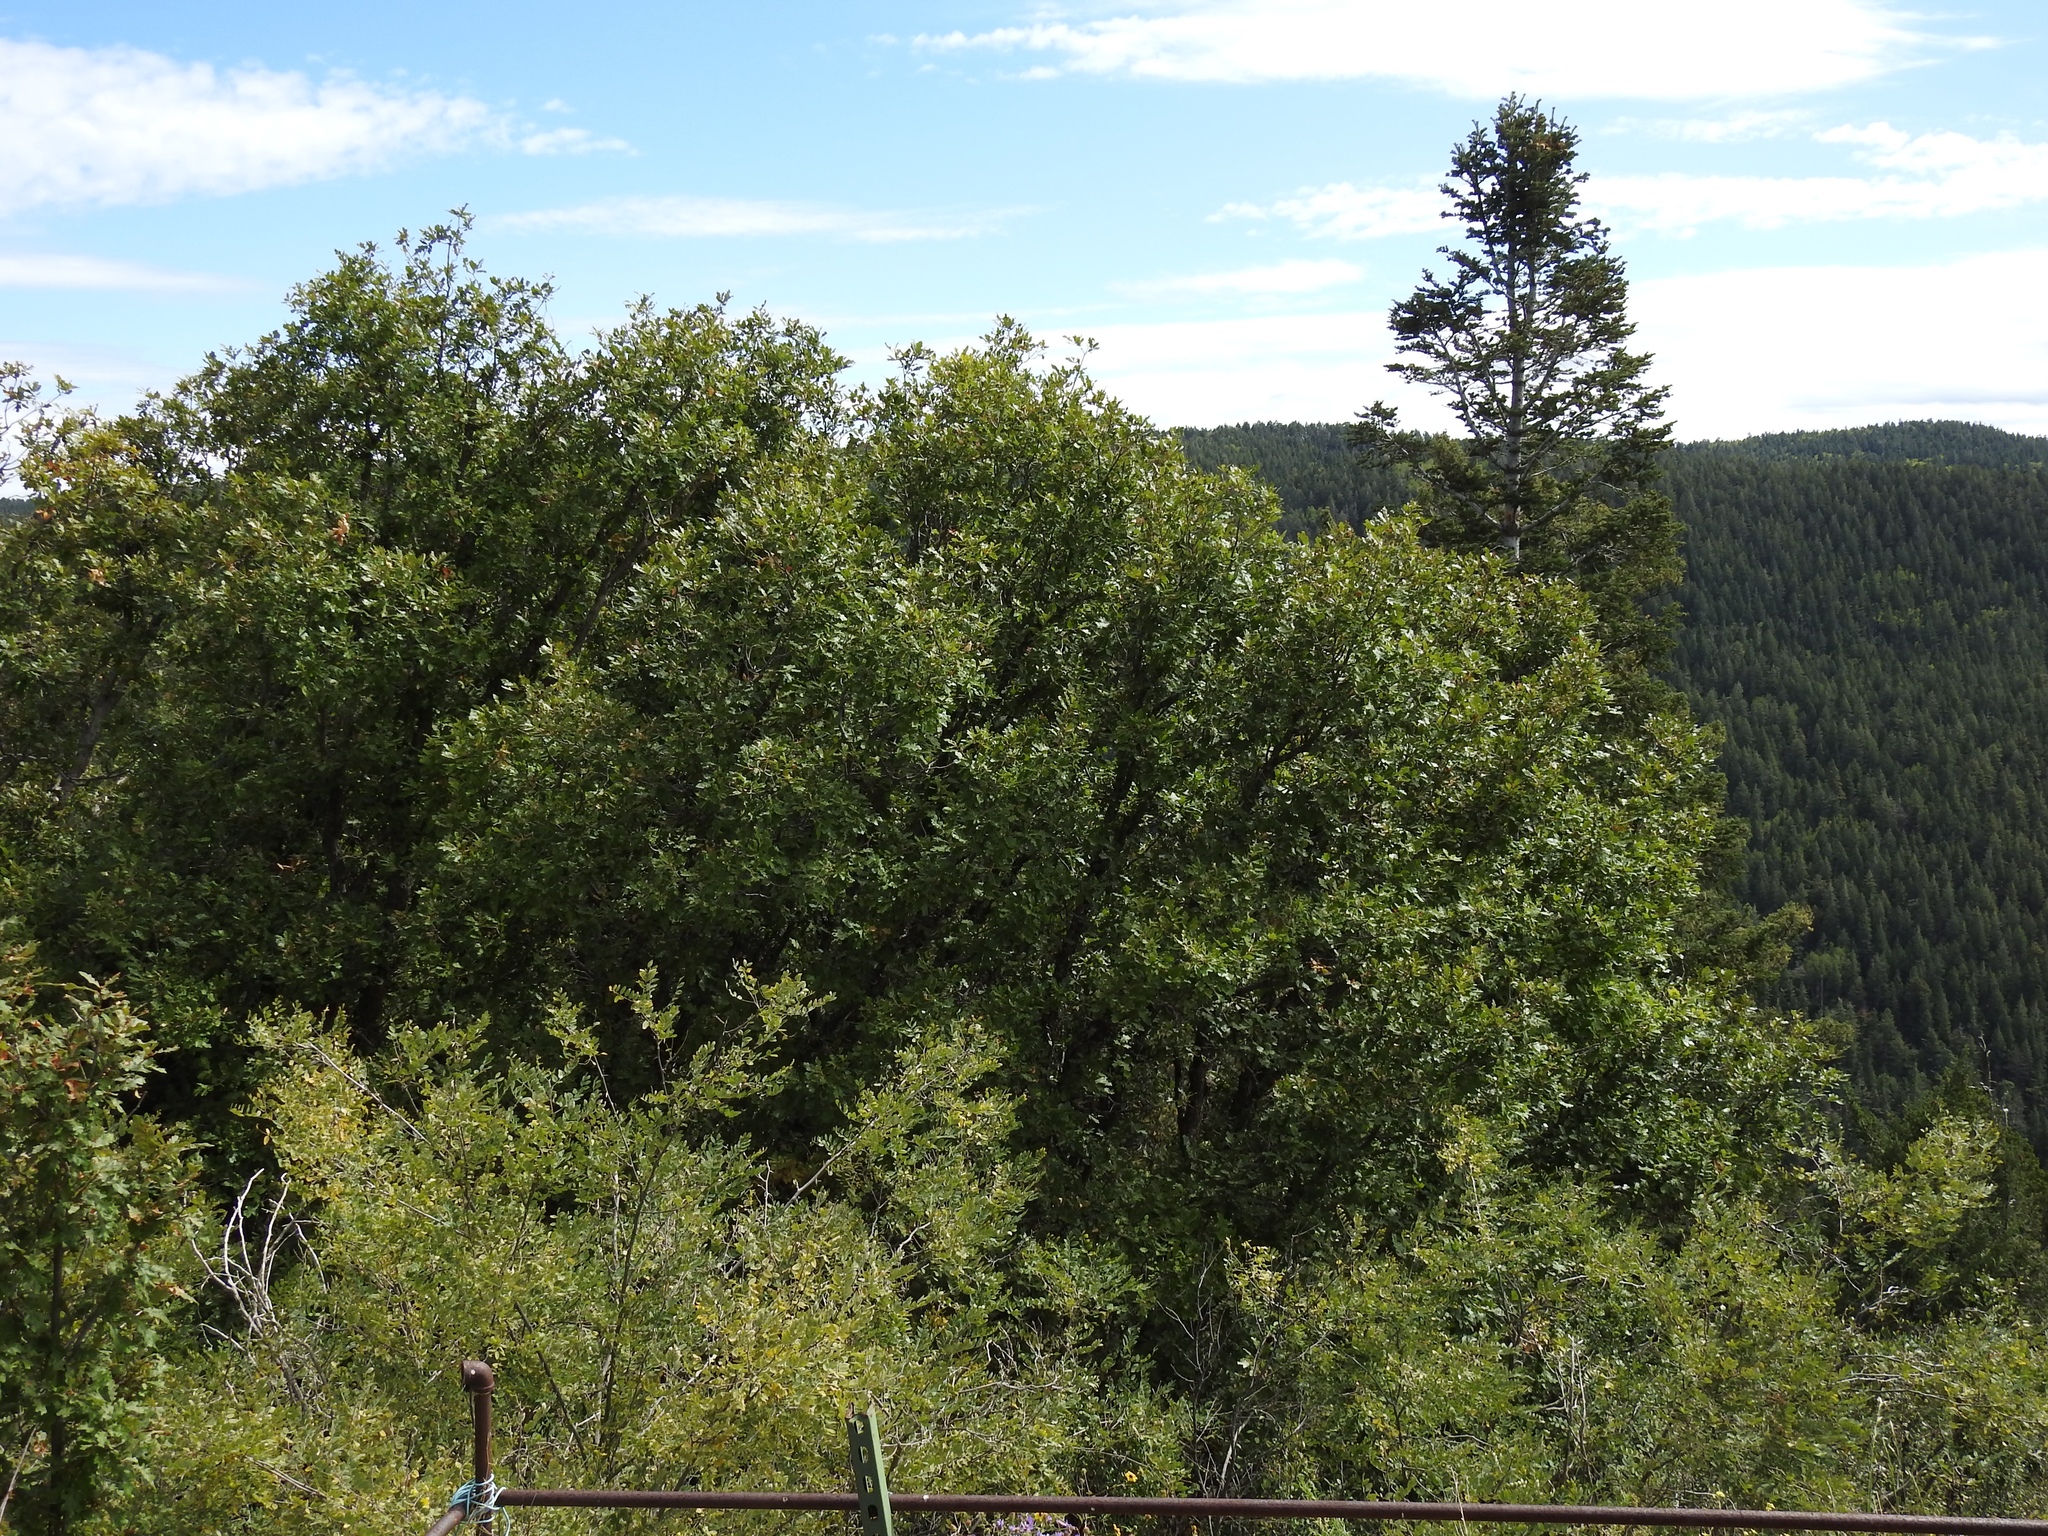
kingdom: Plantae
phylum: Tracheophyta
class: Magnoliopsida
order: Fagales
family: Fagaceae
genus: Quercus
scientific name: Quercus gambelii
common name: Gambel oak
